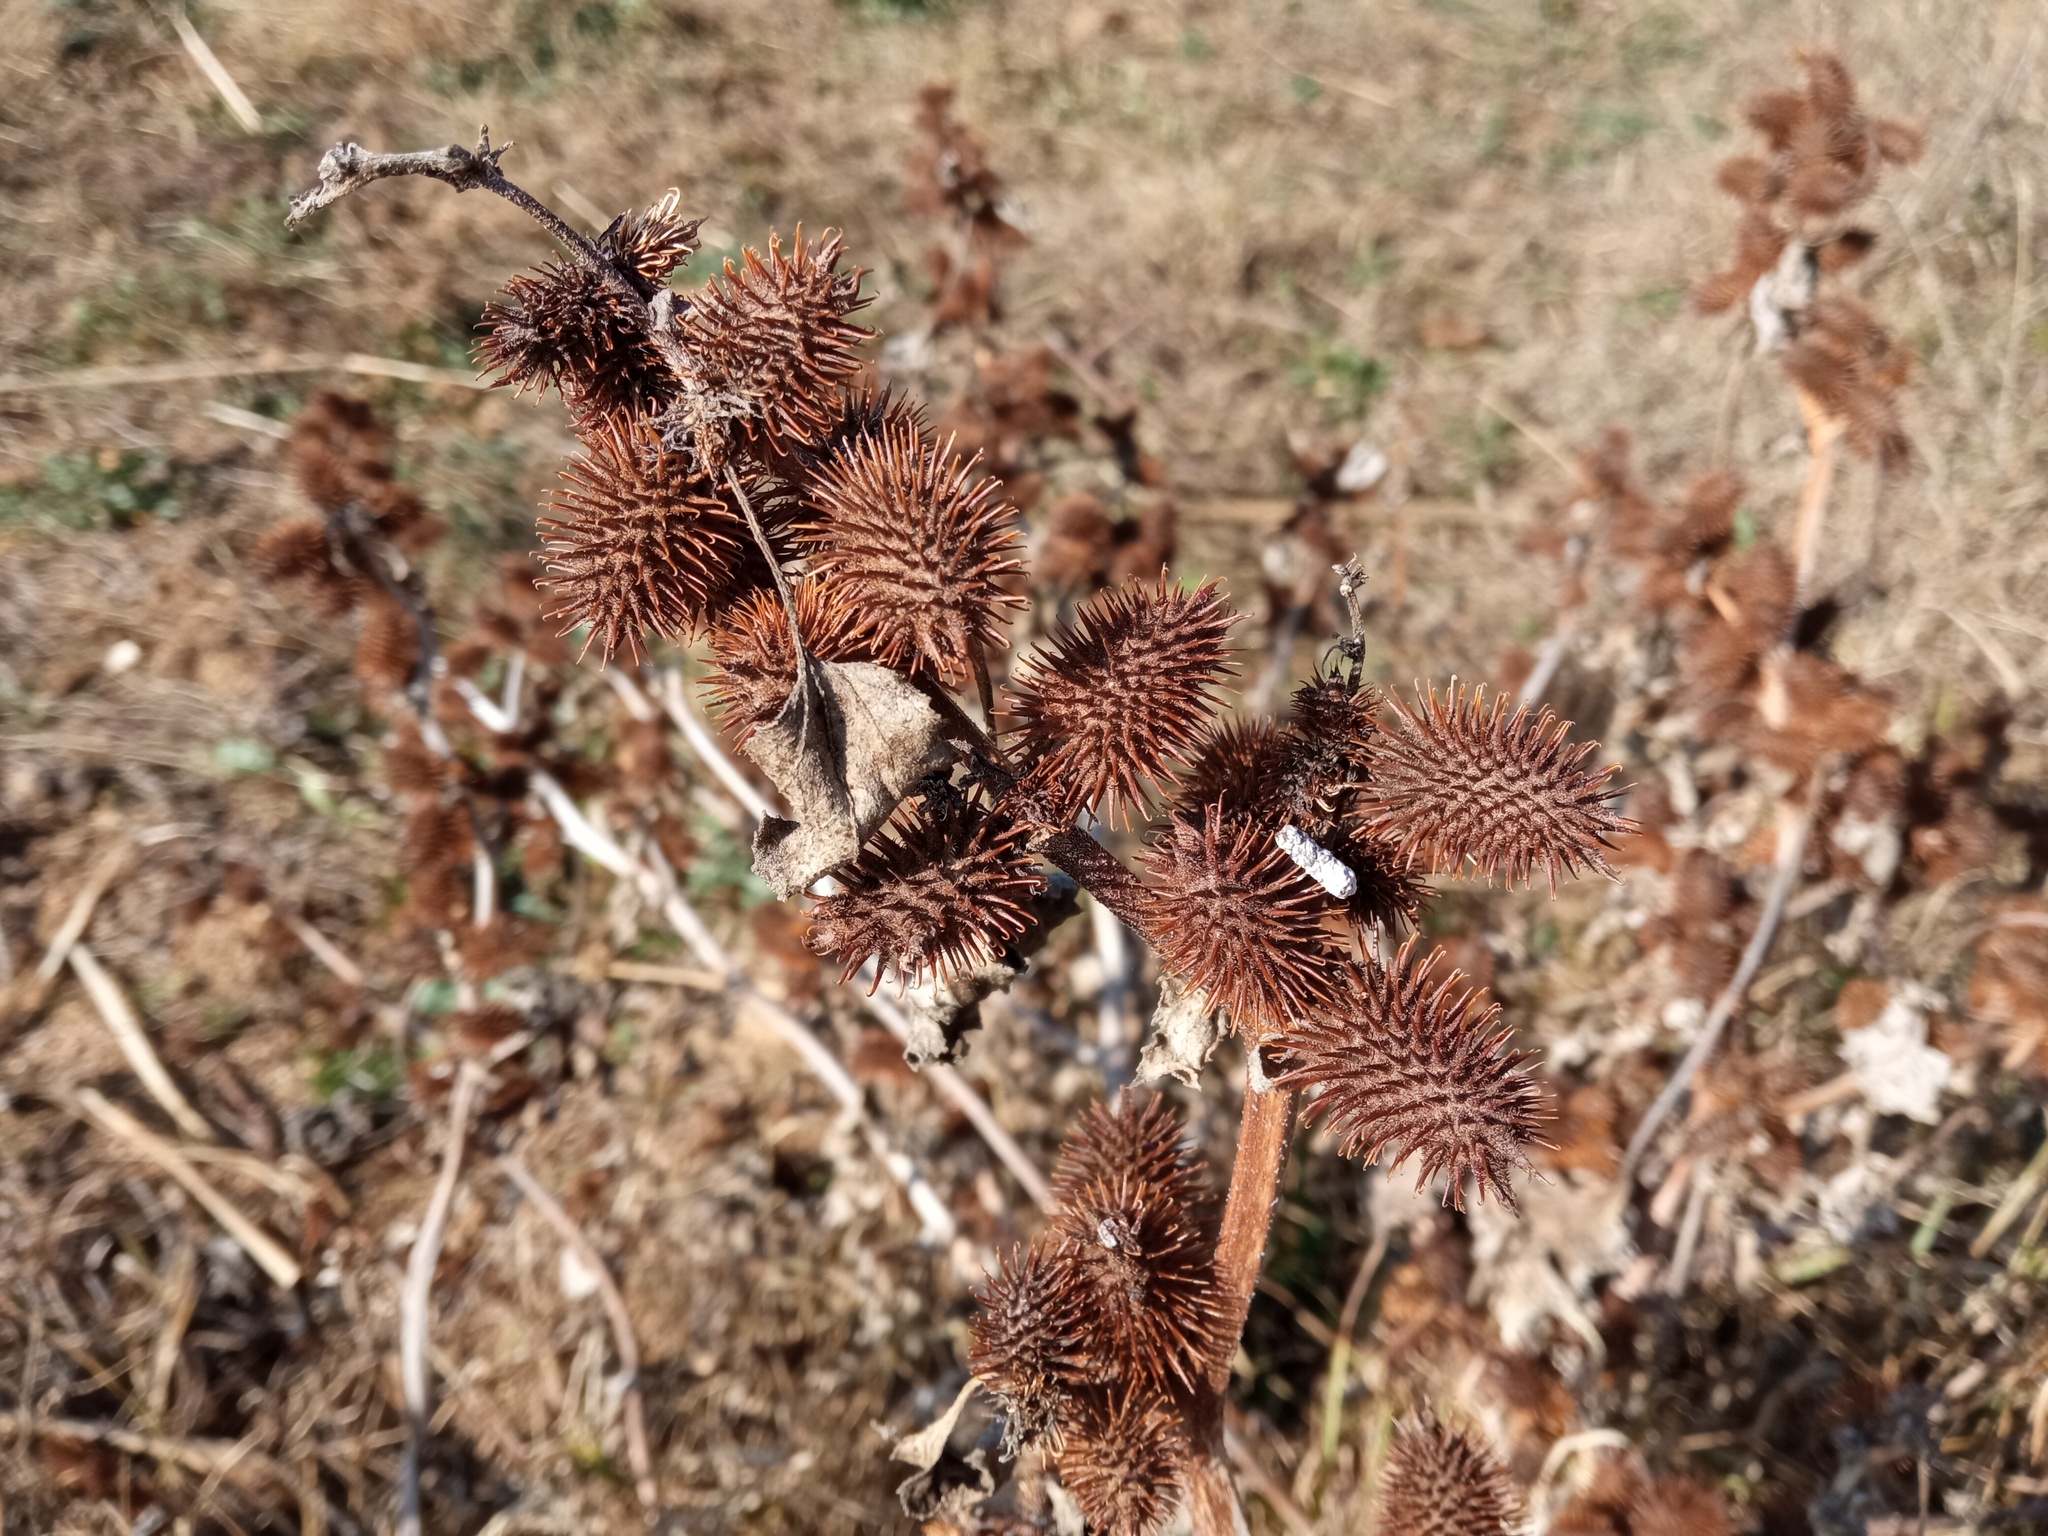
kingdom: Plantae
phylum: Tracheophyta
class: Magnoliopsida
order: Asterales
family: Asteraceae
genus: Xanthium
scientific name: Xanthium orientale
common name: Californian burr
